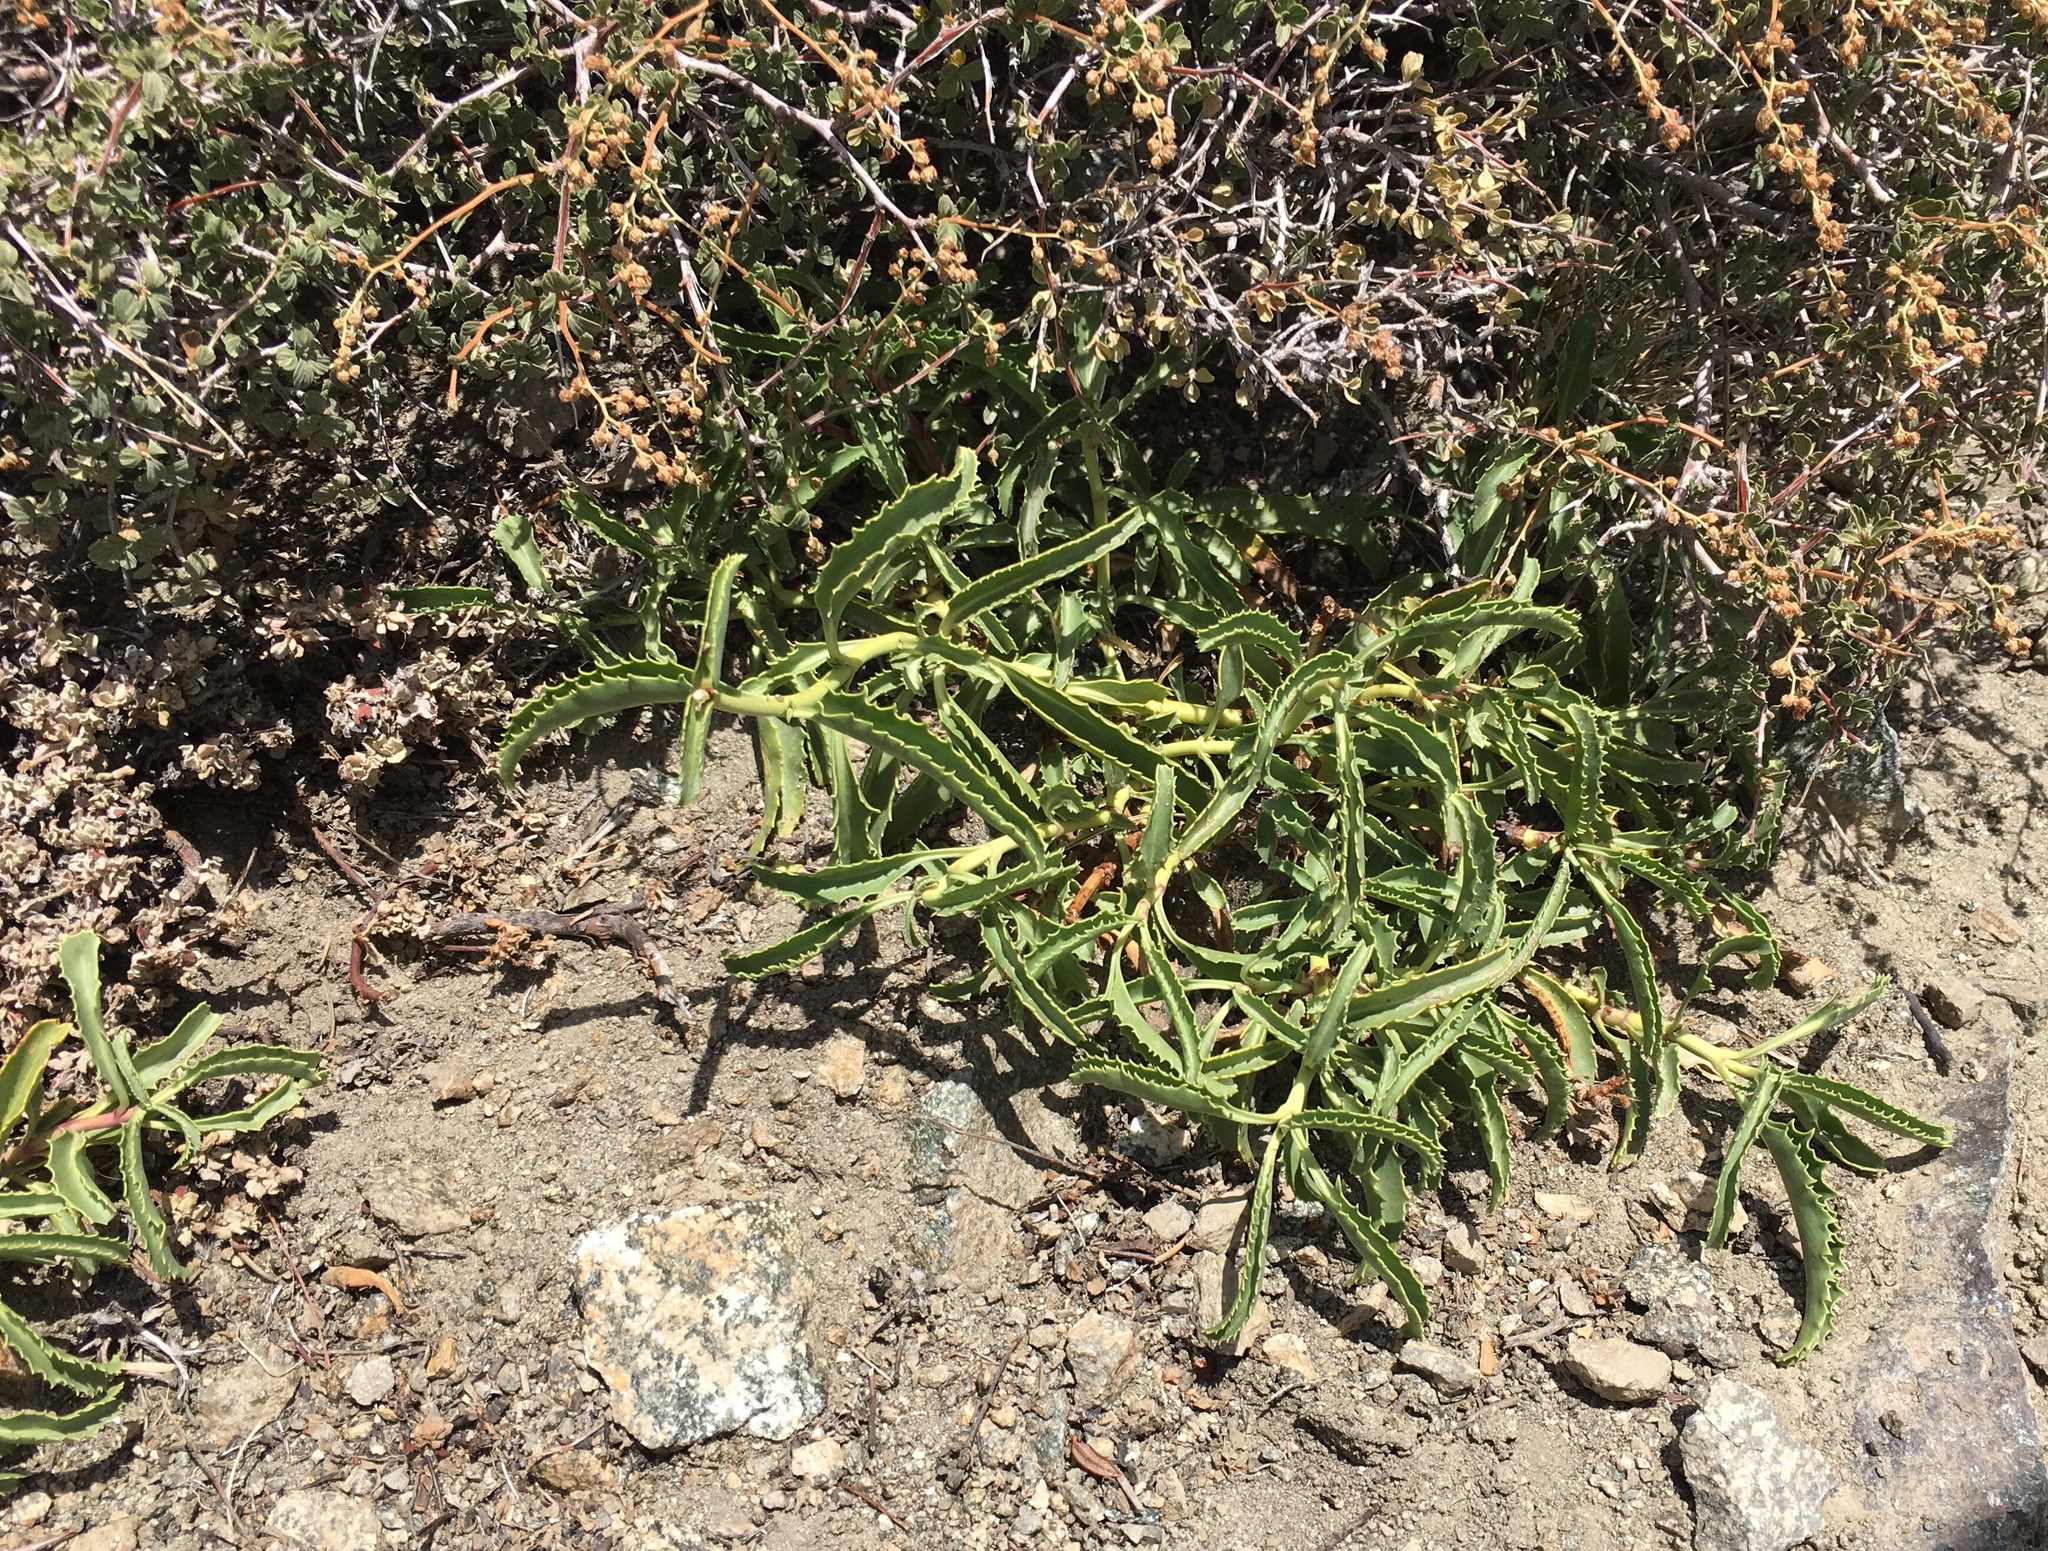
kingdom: Plantae
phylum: Tracheophyta
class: Magnoliopsida
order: Lamiales
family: Plantaginaceae
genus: Penstemon
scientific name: Penstemon grinnellii
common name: Grinnell's beardtongue
